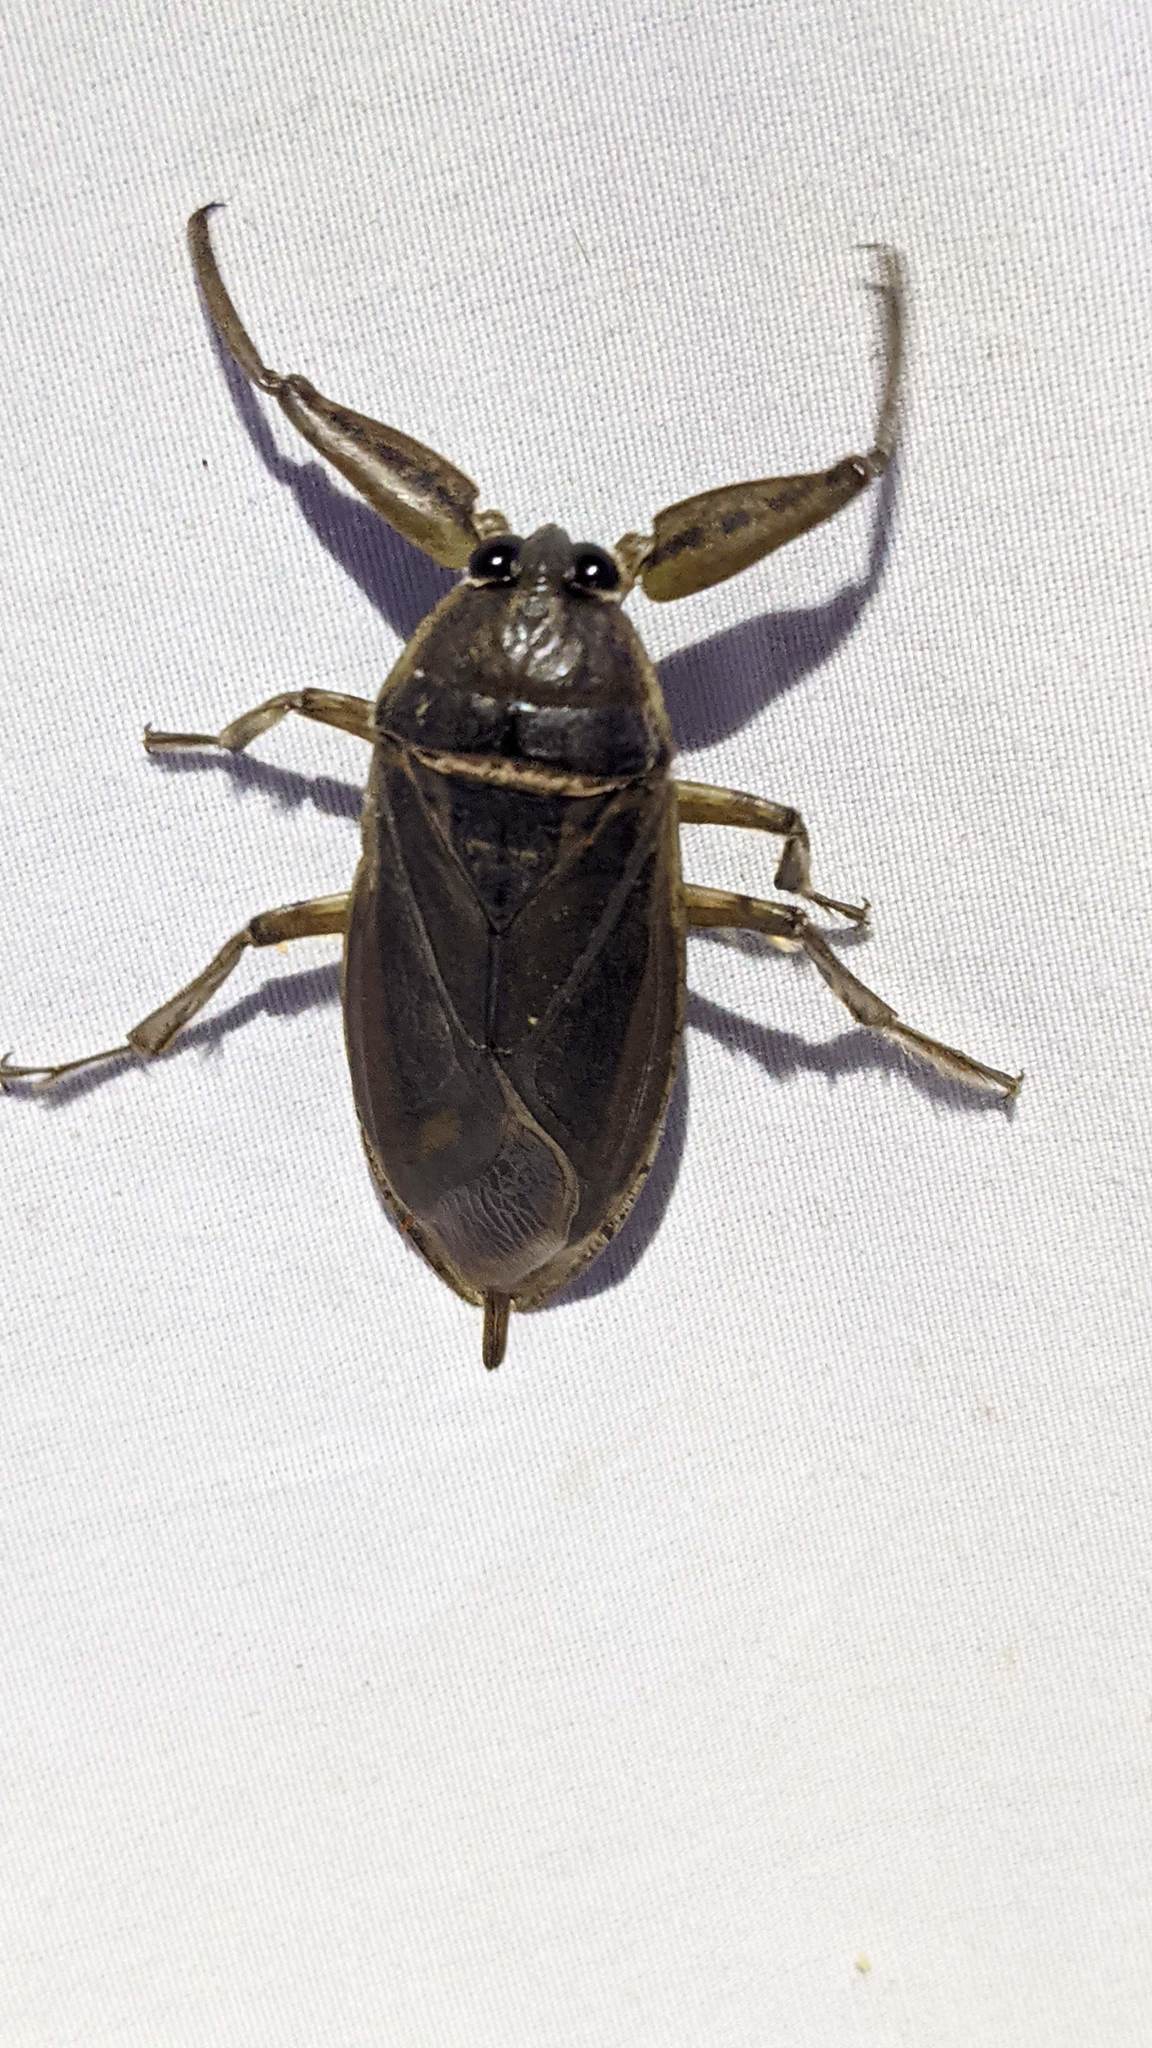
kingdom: Animalia
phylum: Arthropoda
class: Insecta
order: Hemiptera
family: Belostomatidae
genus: Lethocerus
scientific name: Lethocerus americanus
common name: Giant water bug
